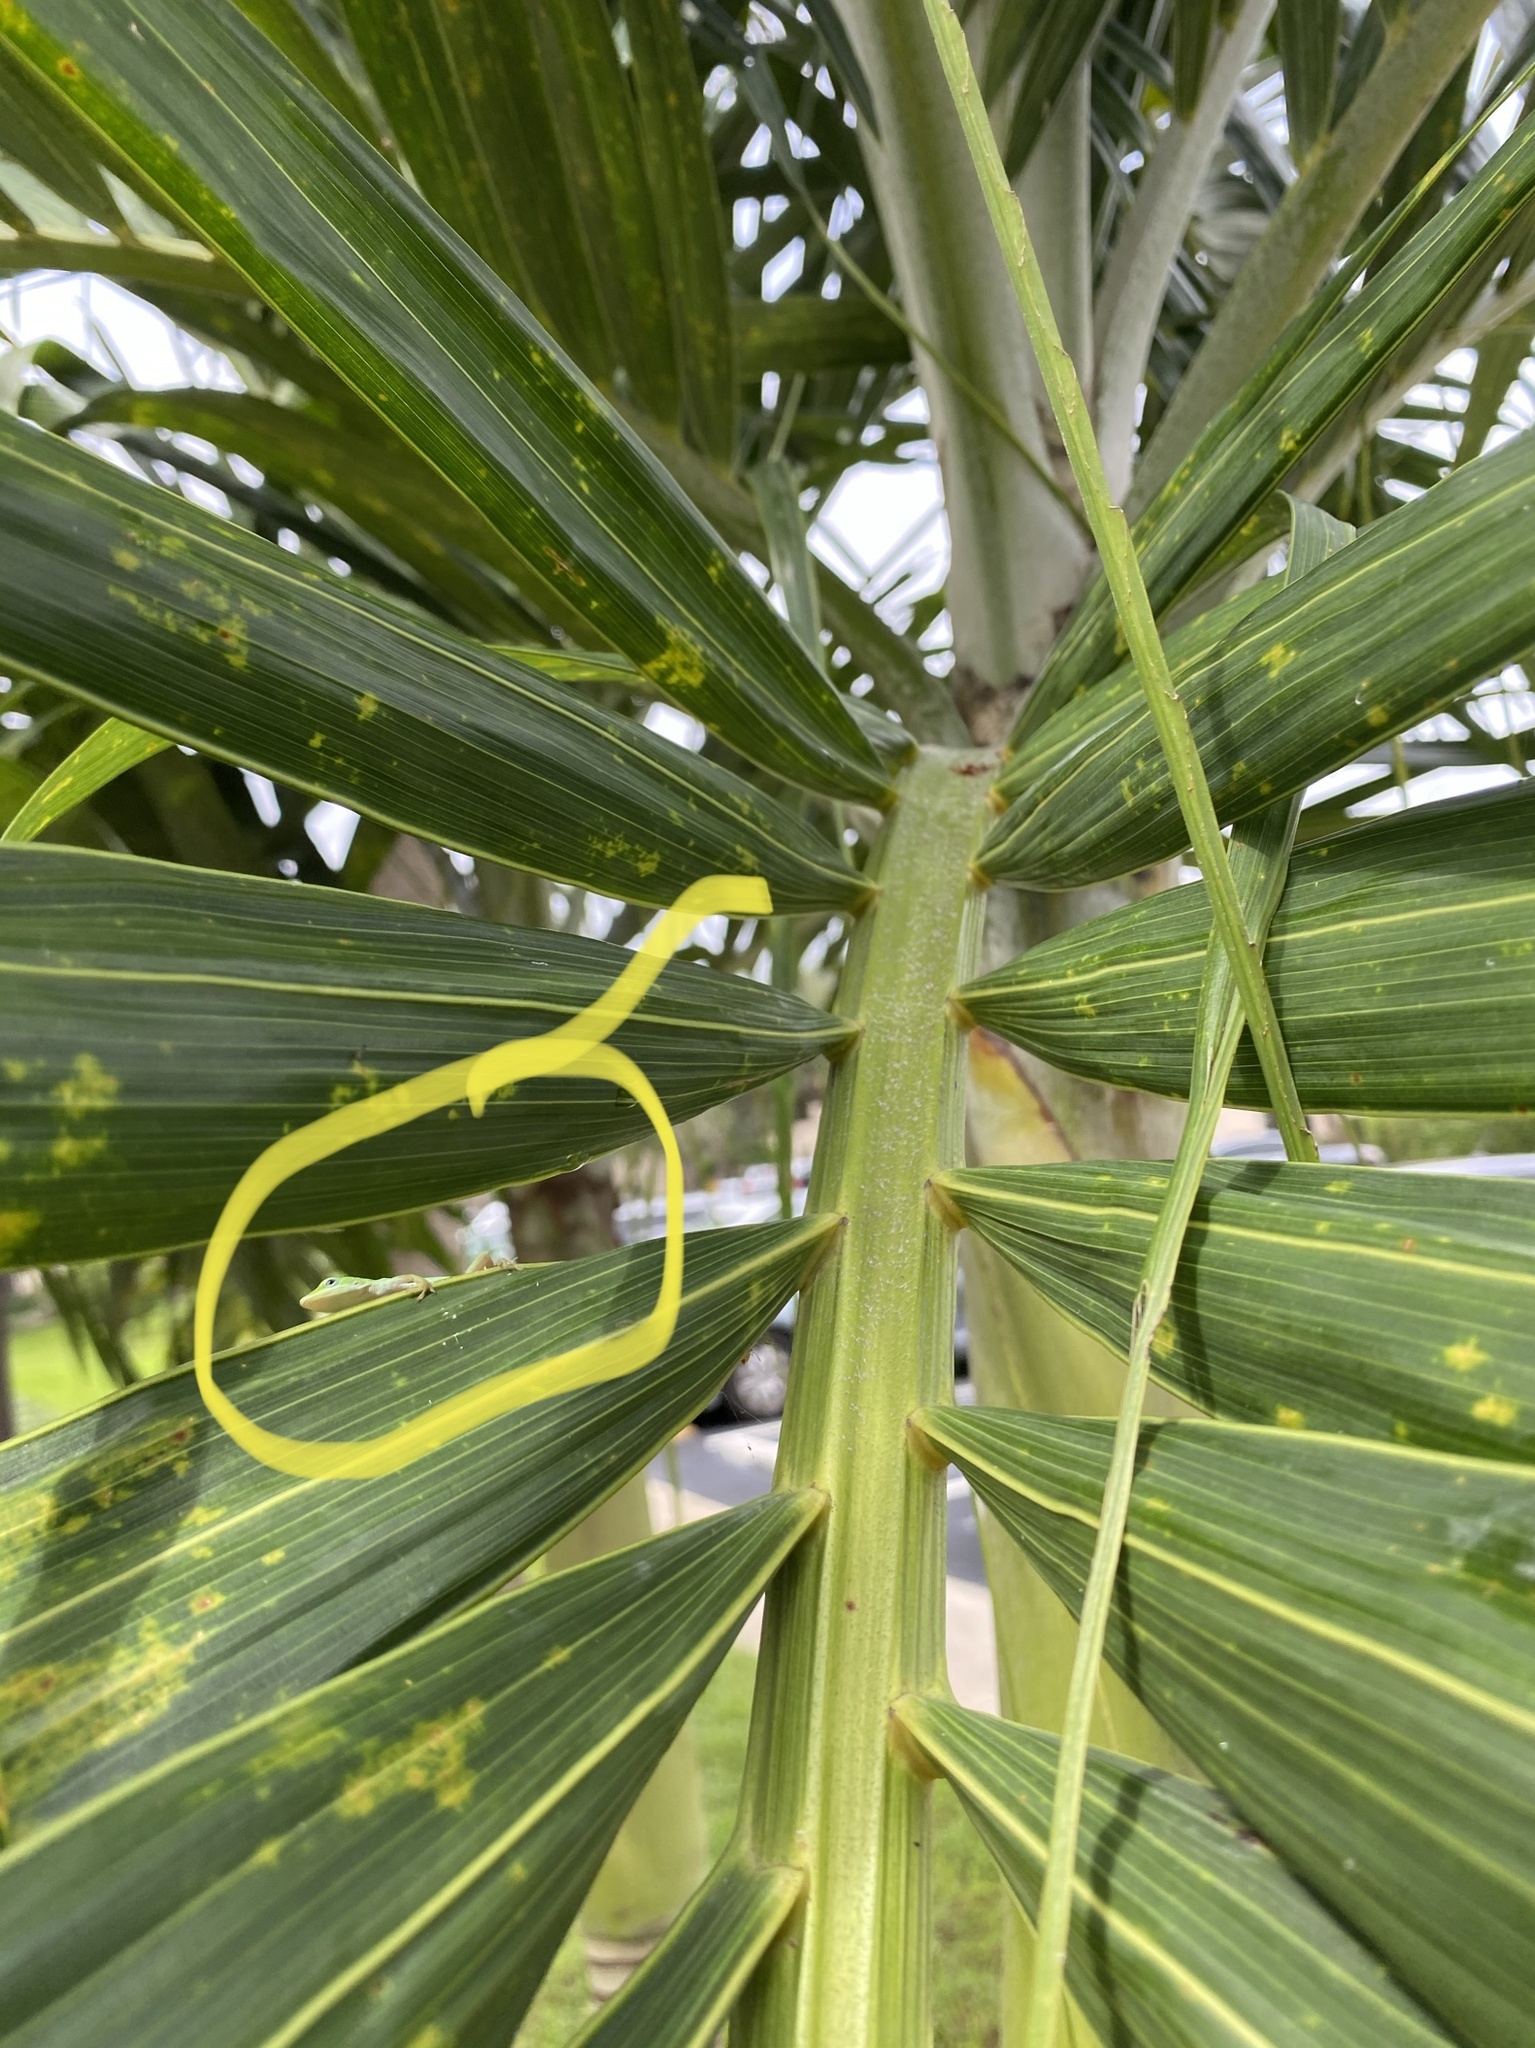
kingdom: Animalia
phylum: Chordata
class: Squamata
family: Dactyloidae
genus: Anolis
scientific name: Anolis carolinensis
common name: Green anole
